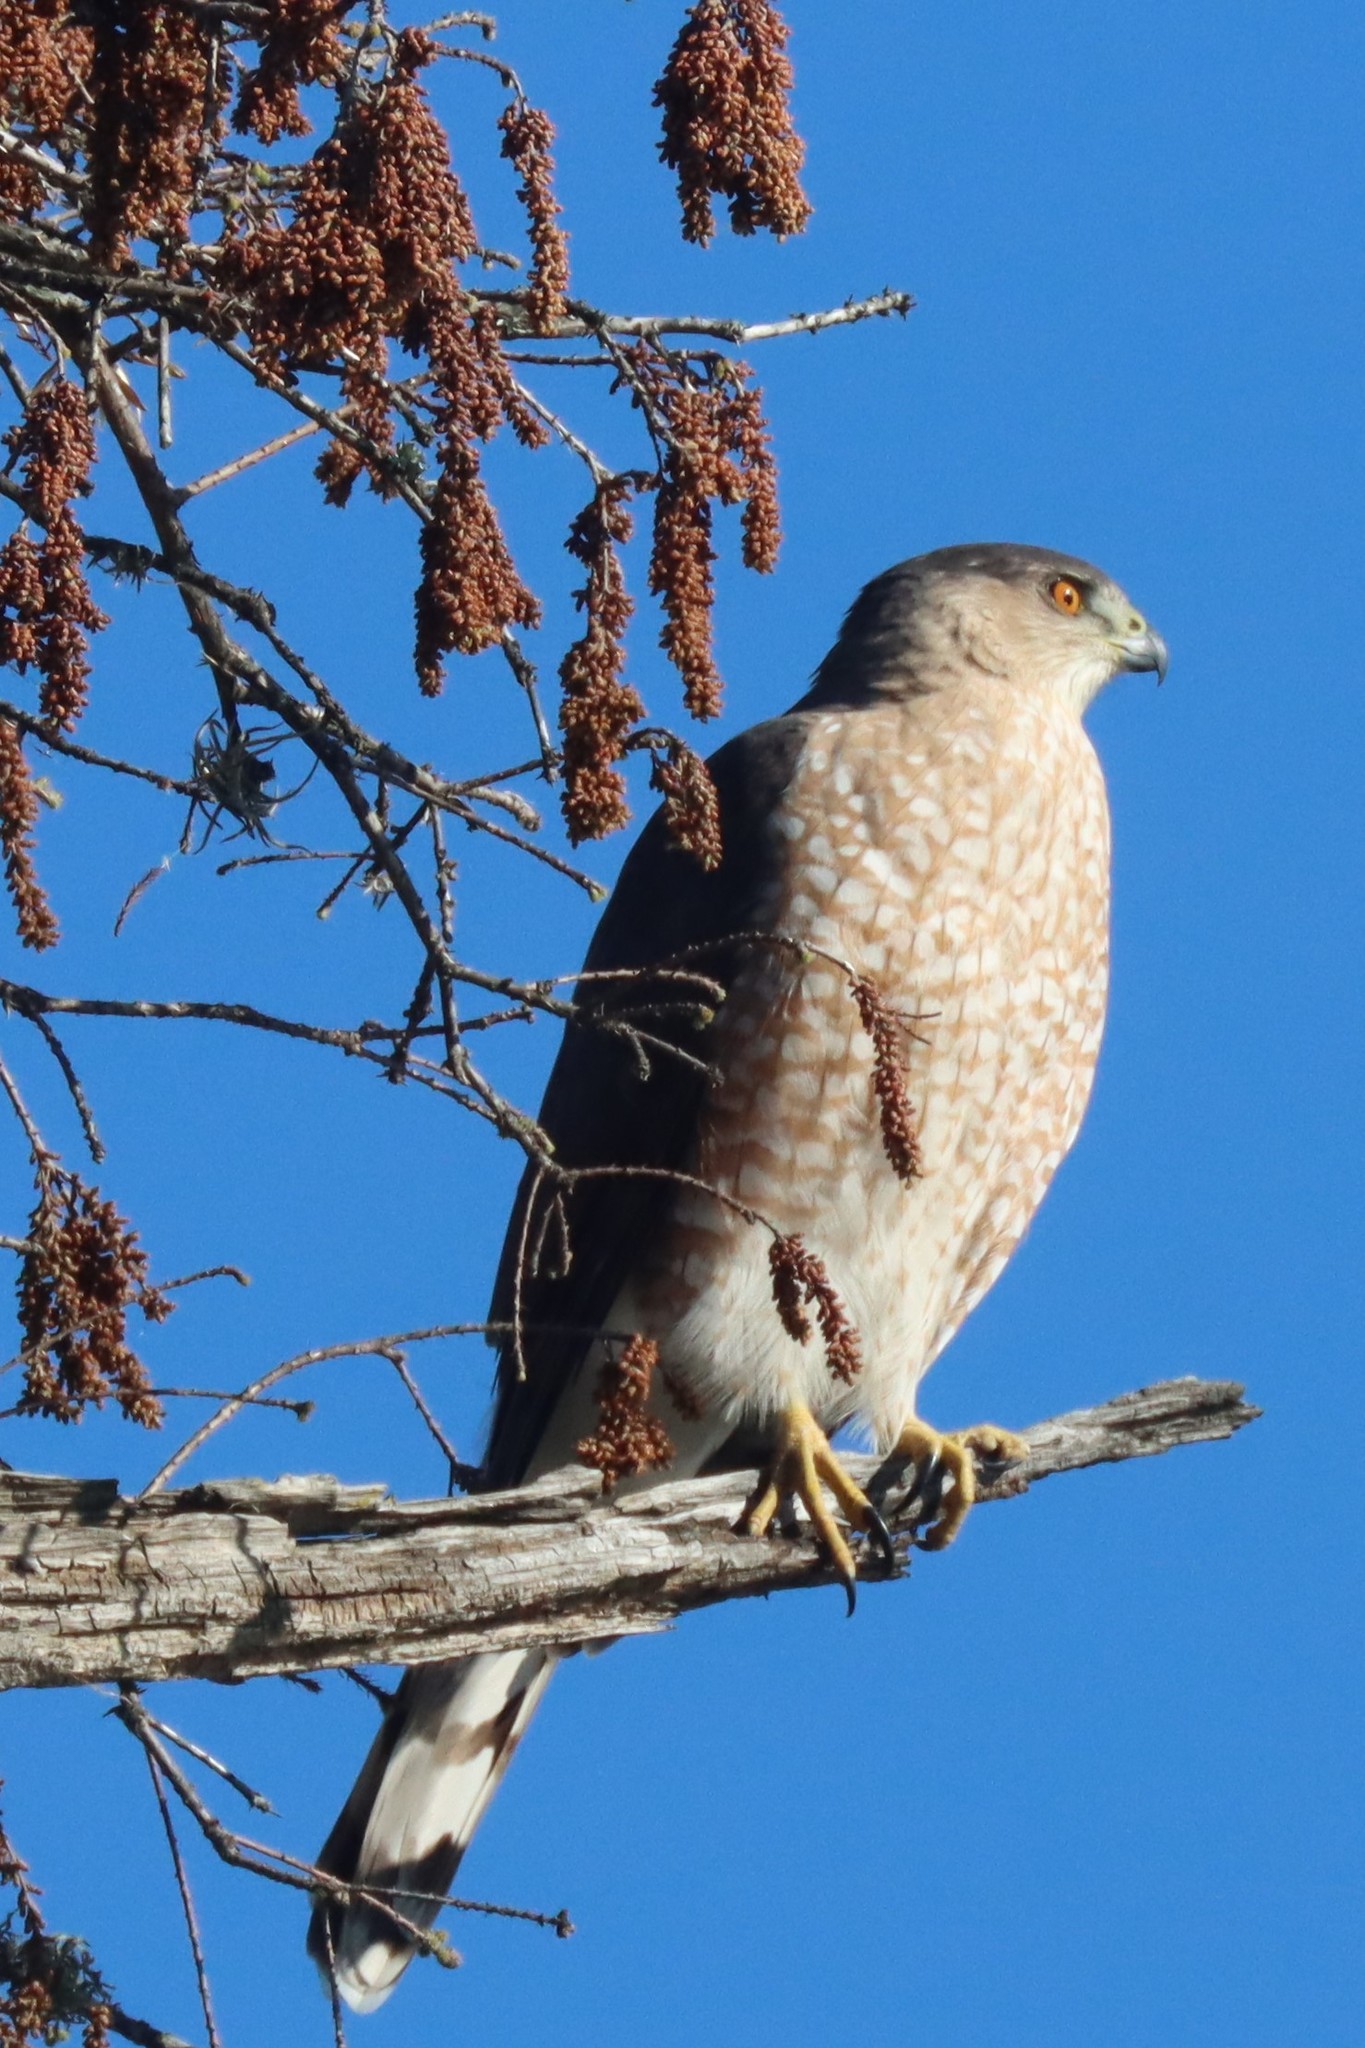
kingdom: Animalia
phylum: Chordata
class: Aves
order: Accipitriformes
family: Accipitridae
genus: Accipiter
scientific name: Accipiter cooperii
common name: Cooper's hawk
